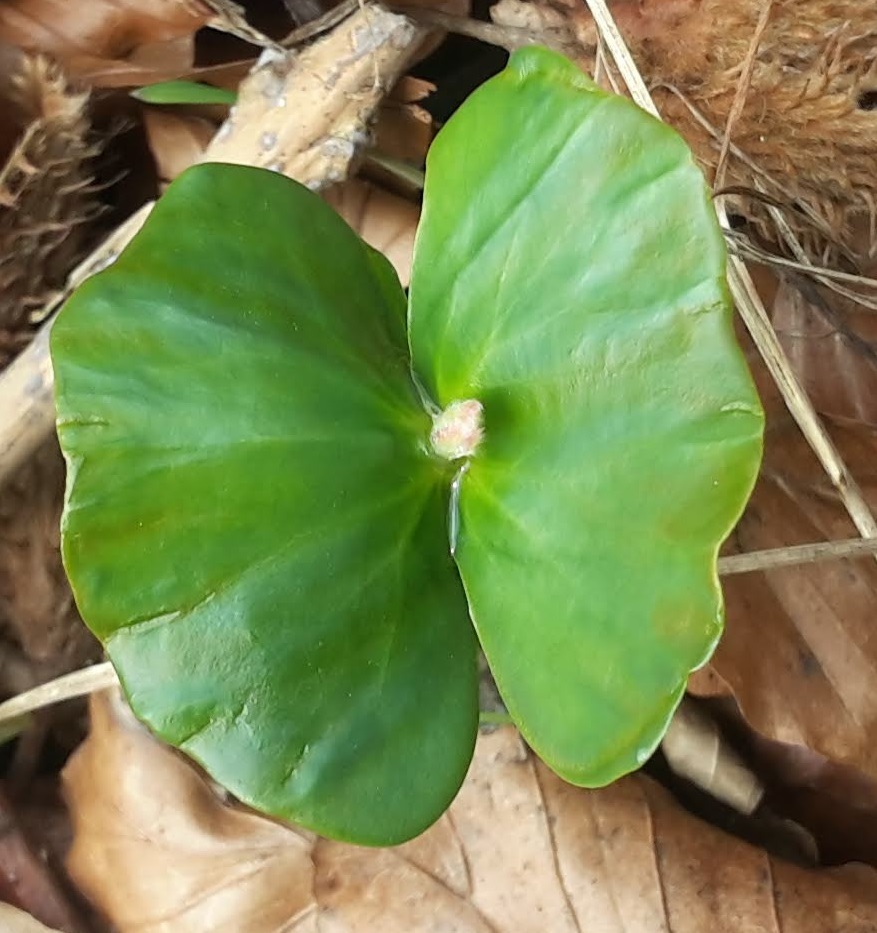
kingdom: Plantae
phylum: Tracheophyta
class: Magnoliopsida
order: Fagales
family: Fagaceae
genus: Fagus
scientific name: Fagus sylvatica
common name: Beech
